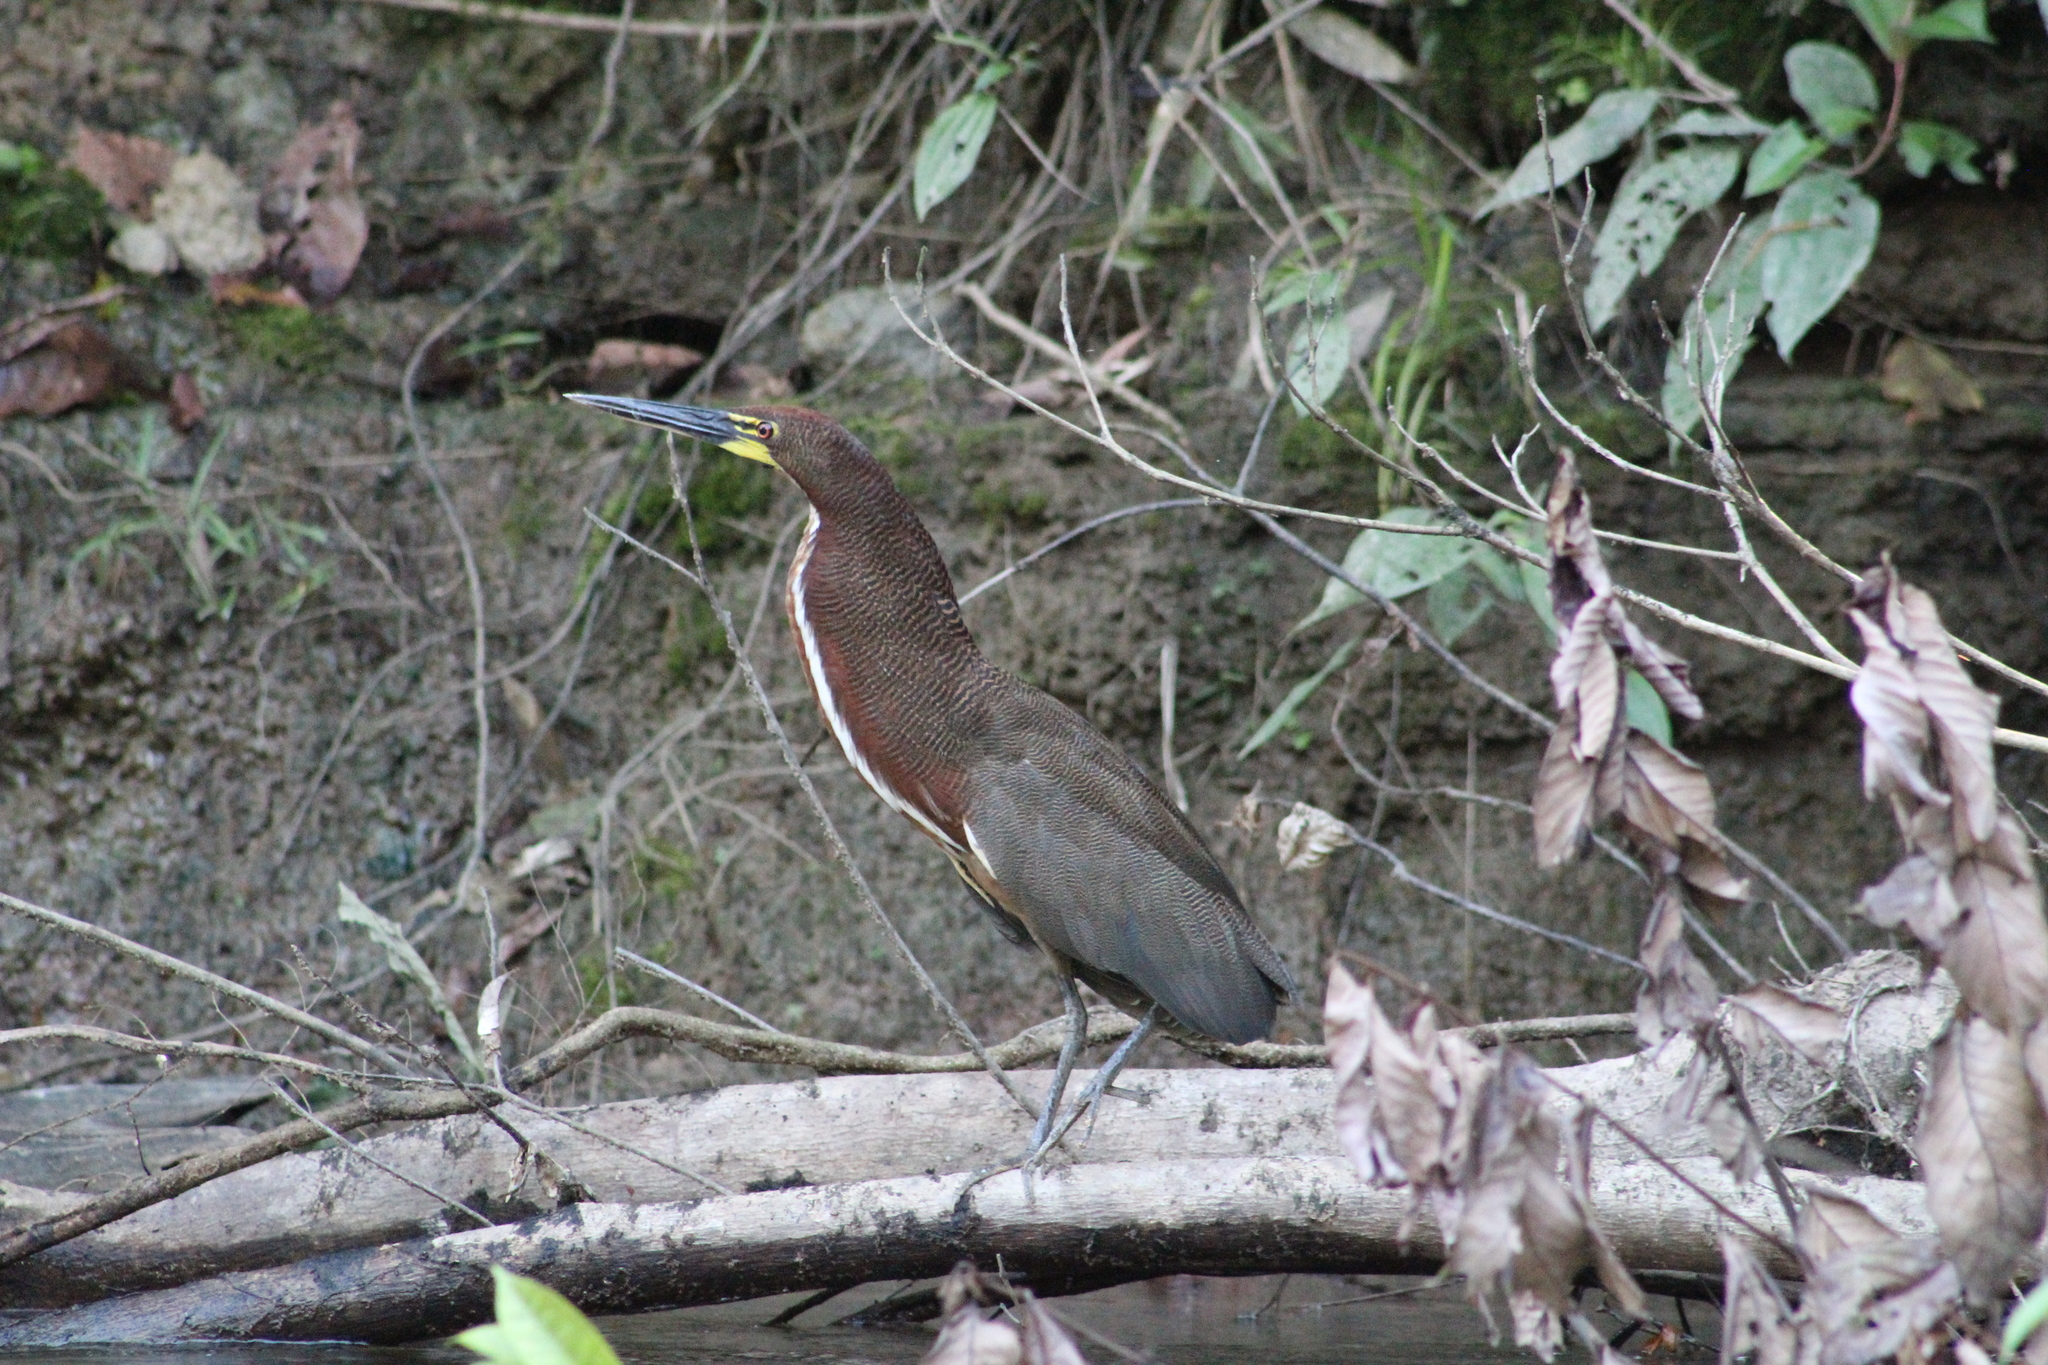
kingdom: Animalia
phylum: Chordata
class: Aves
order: Pelecaniformes
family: Ardeidae
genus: Tigrisoma
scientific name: Tigrisoma lineatum
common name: Rufescent tiger-heron
